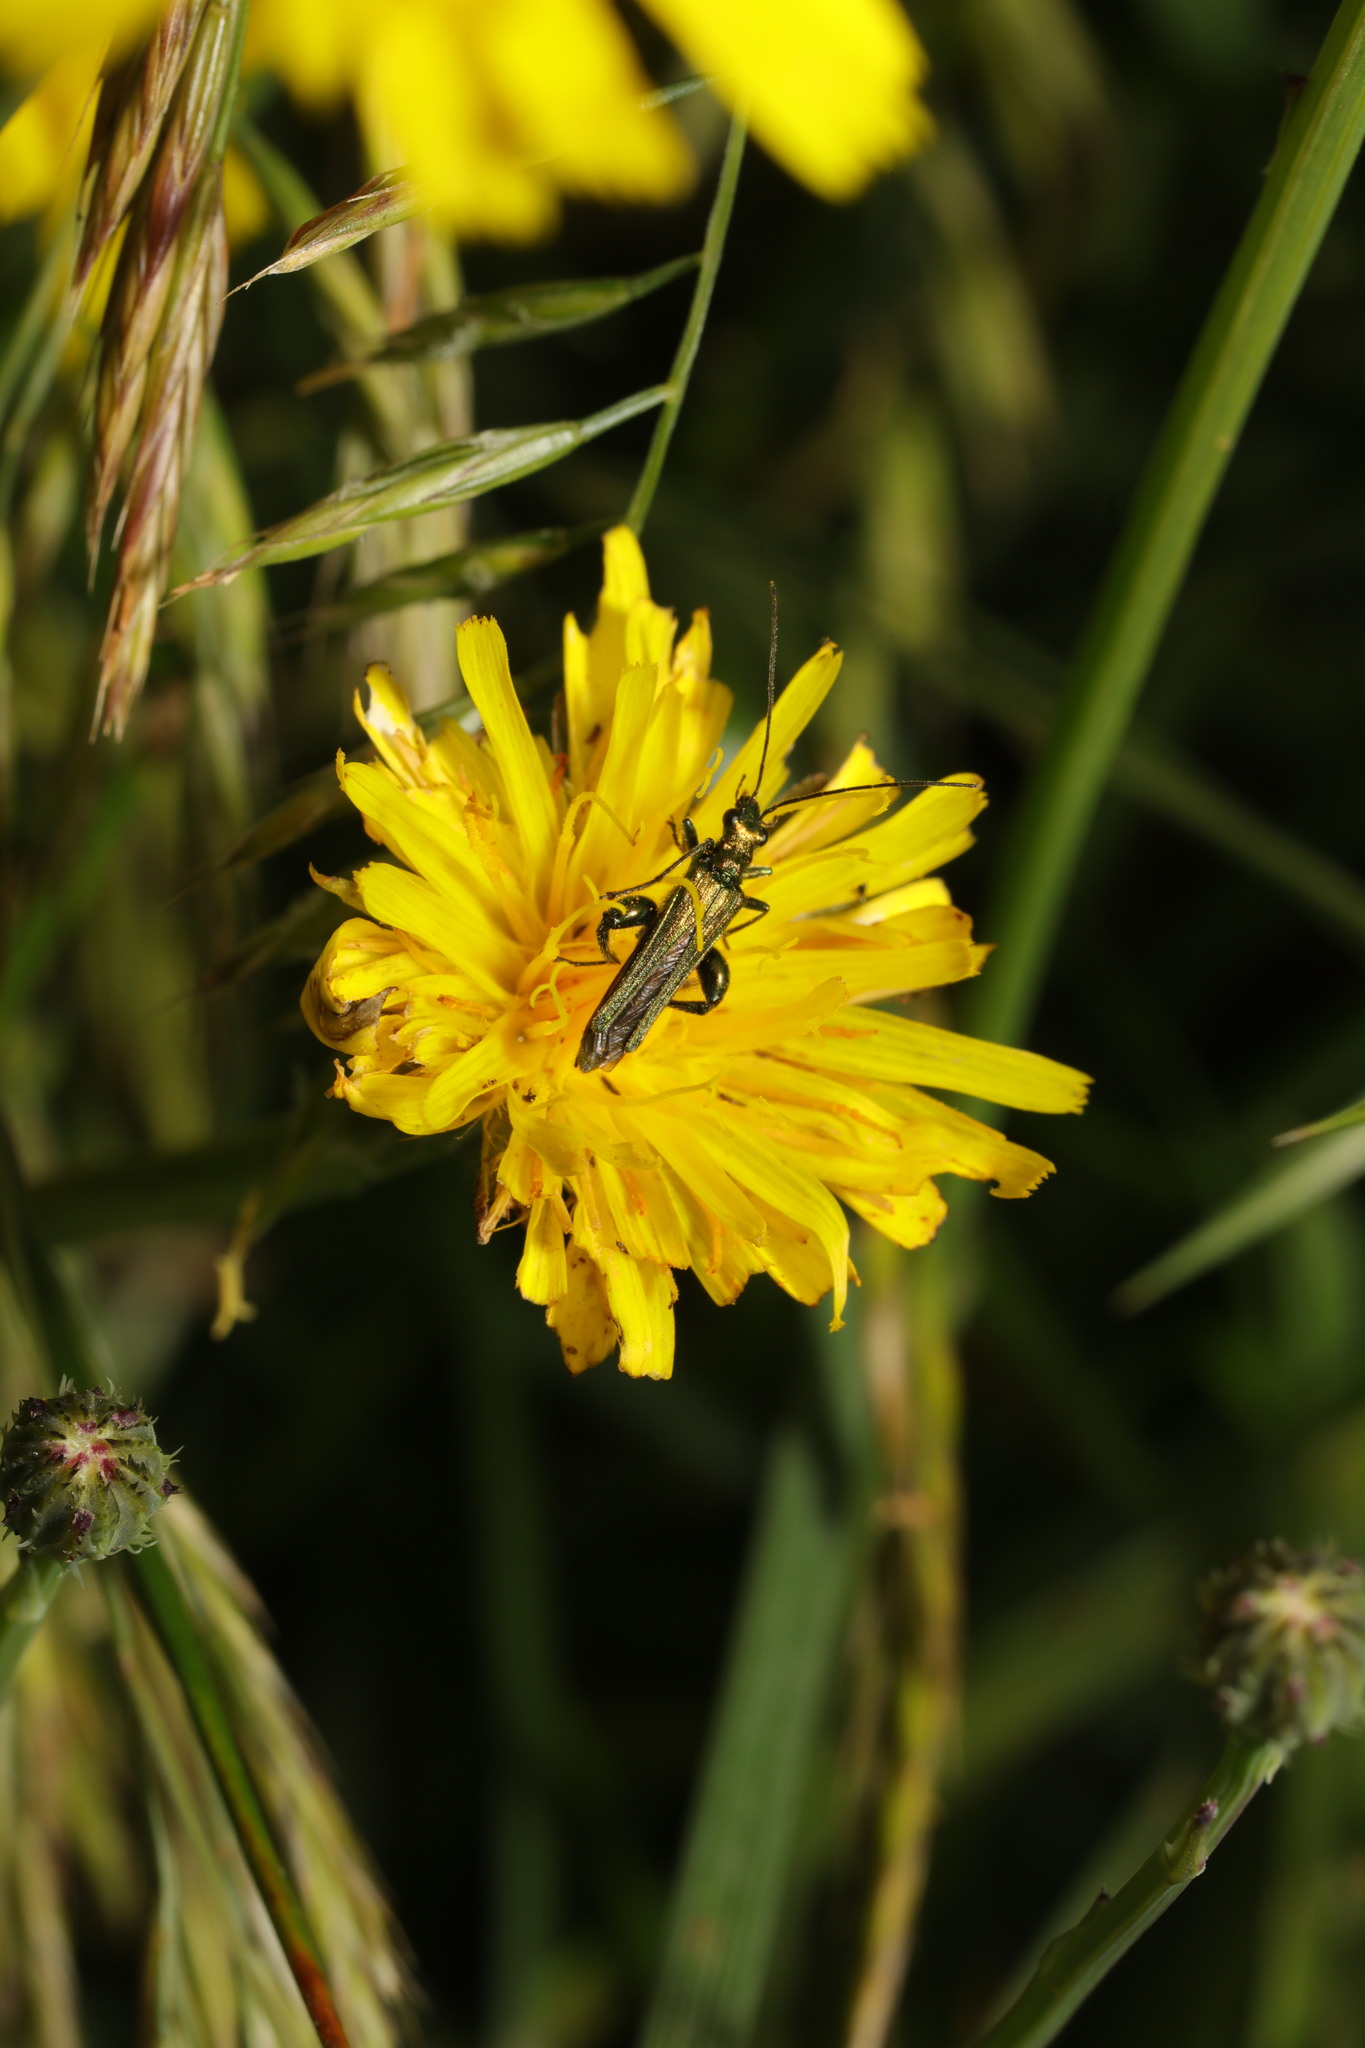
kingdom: Animalia
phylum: Arthropoda
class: Insecta
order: Coleoptera
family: Oedemeridae
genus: Oedemera
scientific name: Oedemera nobilis
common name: Swollen-thighed beetle
